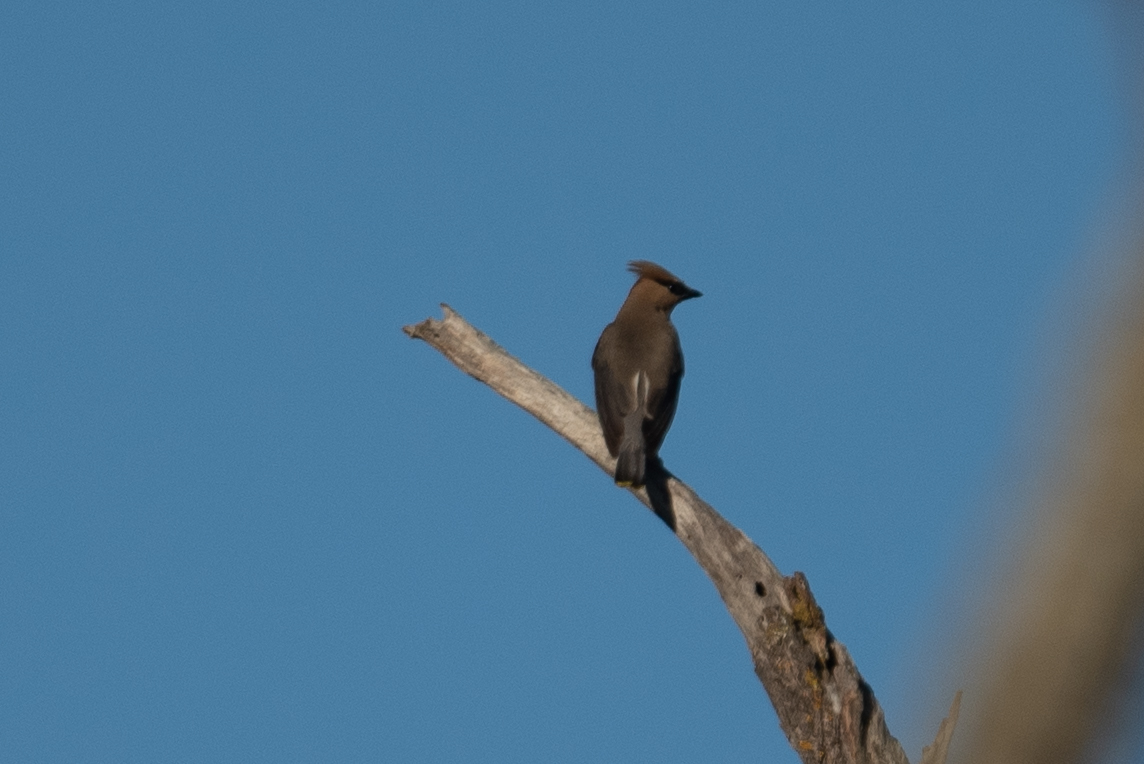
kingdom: Animalia
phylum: Chordata
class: Aves
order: Passeriformes
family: Bombycillidae
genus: Bombycilla
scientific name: Bombycilla cedrorum
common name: Cedar waxwing
